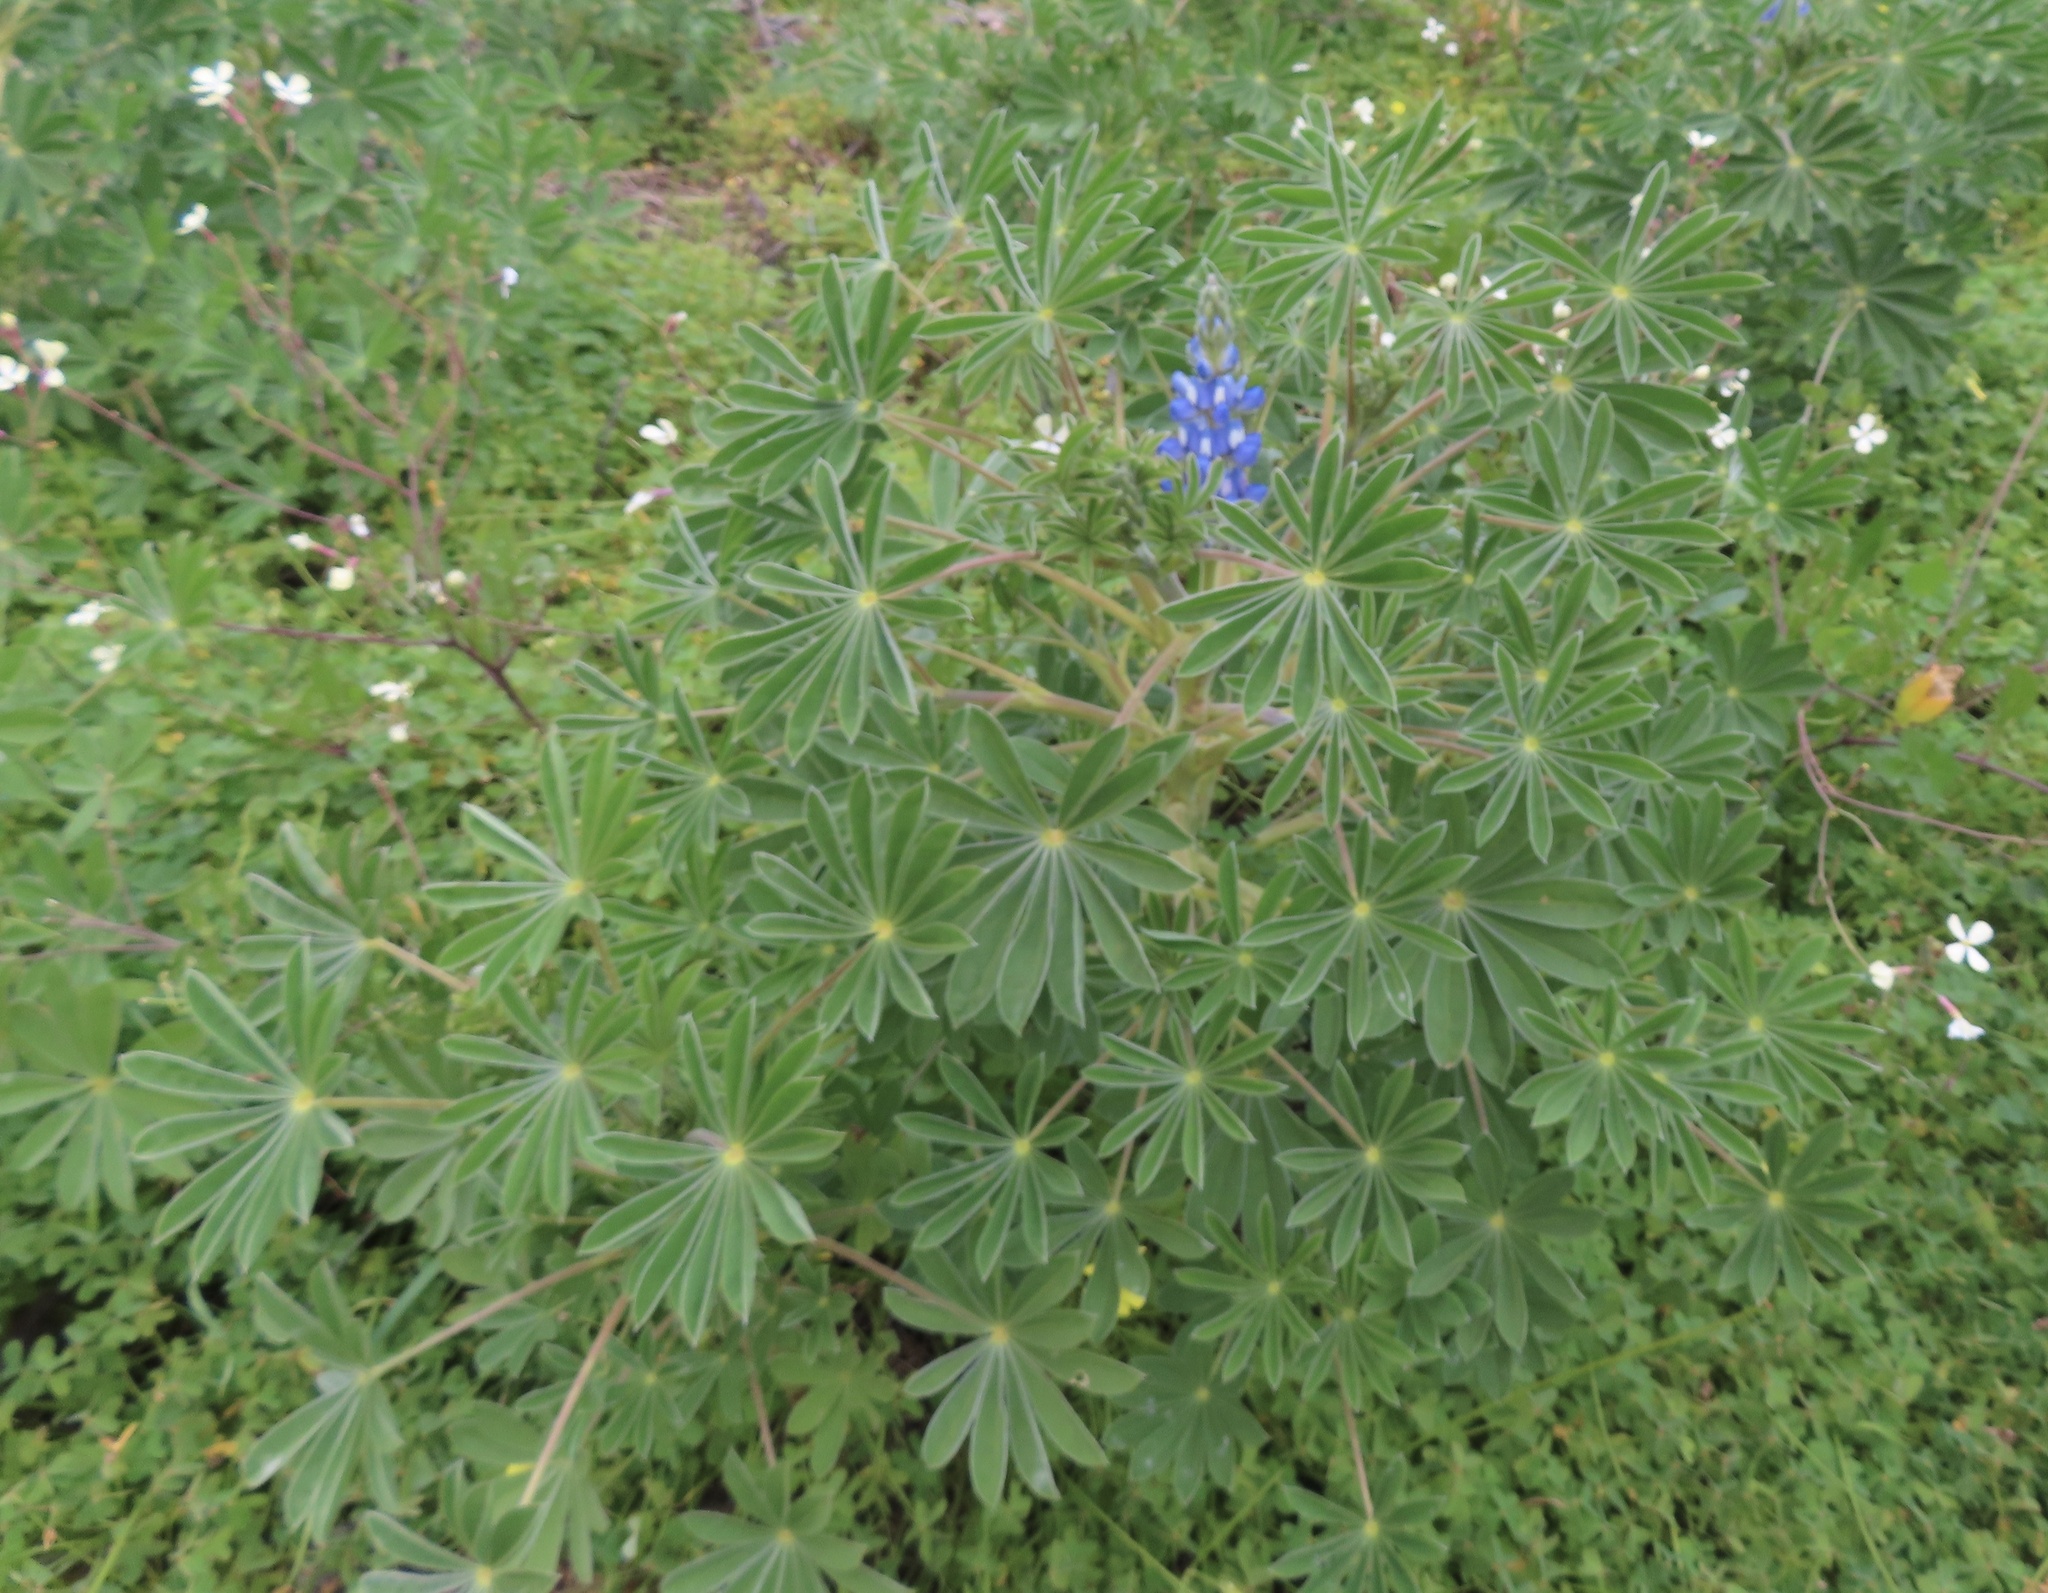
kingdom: Plantae
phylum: Tracheophyta
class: Magnoliopsida
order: Fabales
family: Fabaceae
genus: Lupinus
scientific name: Lupinus cosentinii
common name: Hairy blue lupin
